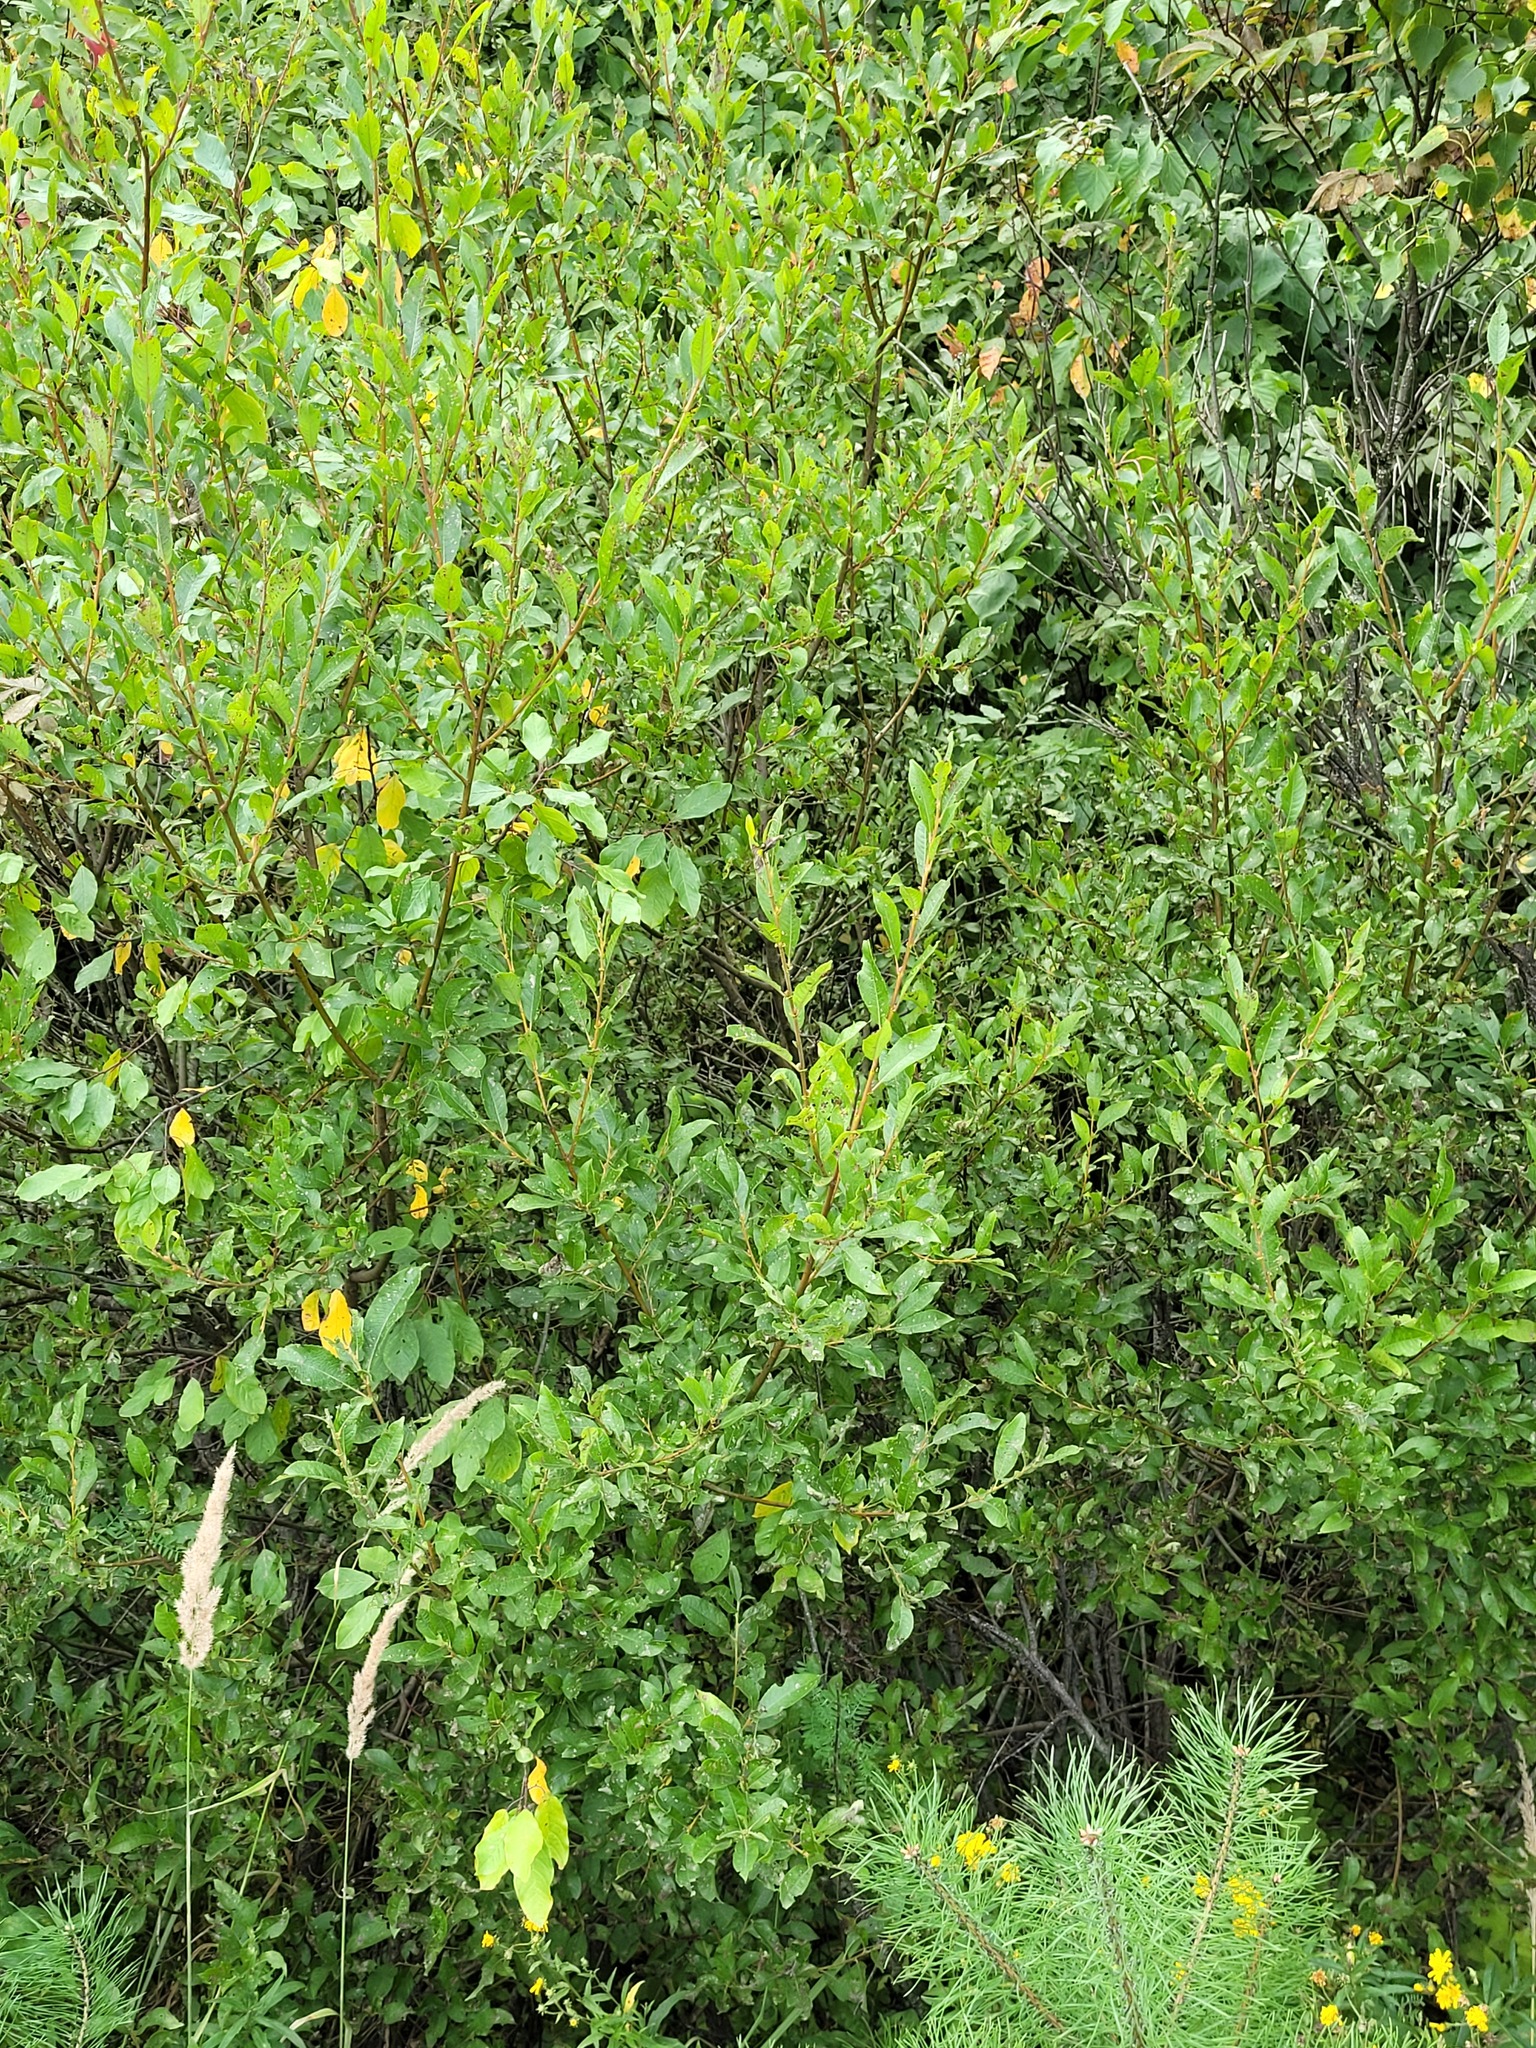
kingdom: Plantae
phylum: Tracheophyta
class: Magnoliopsida
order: Malpighiales
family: Salicaceae
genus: Salix
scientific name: Salix myrsinifolia
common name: Dark-leaved willow
